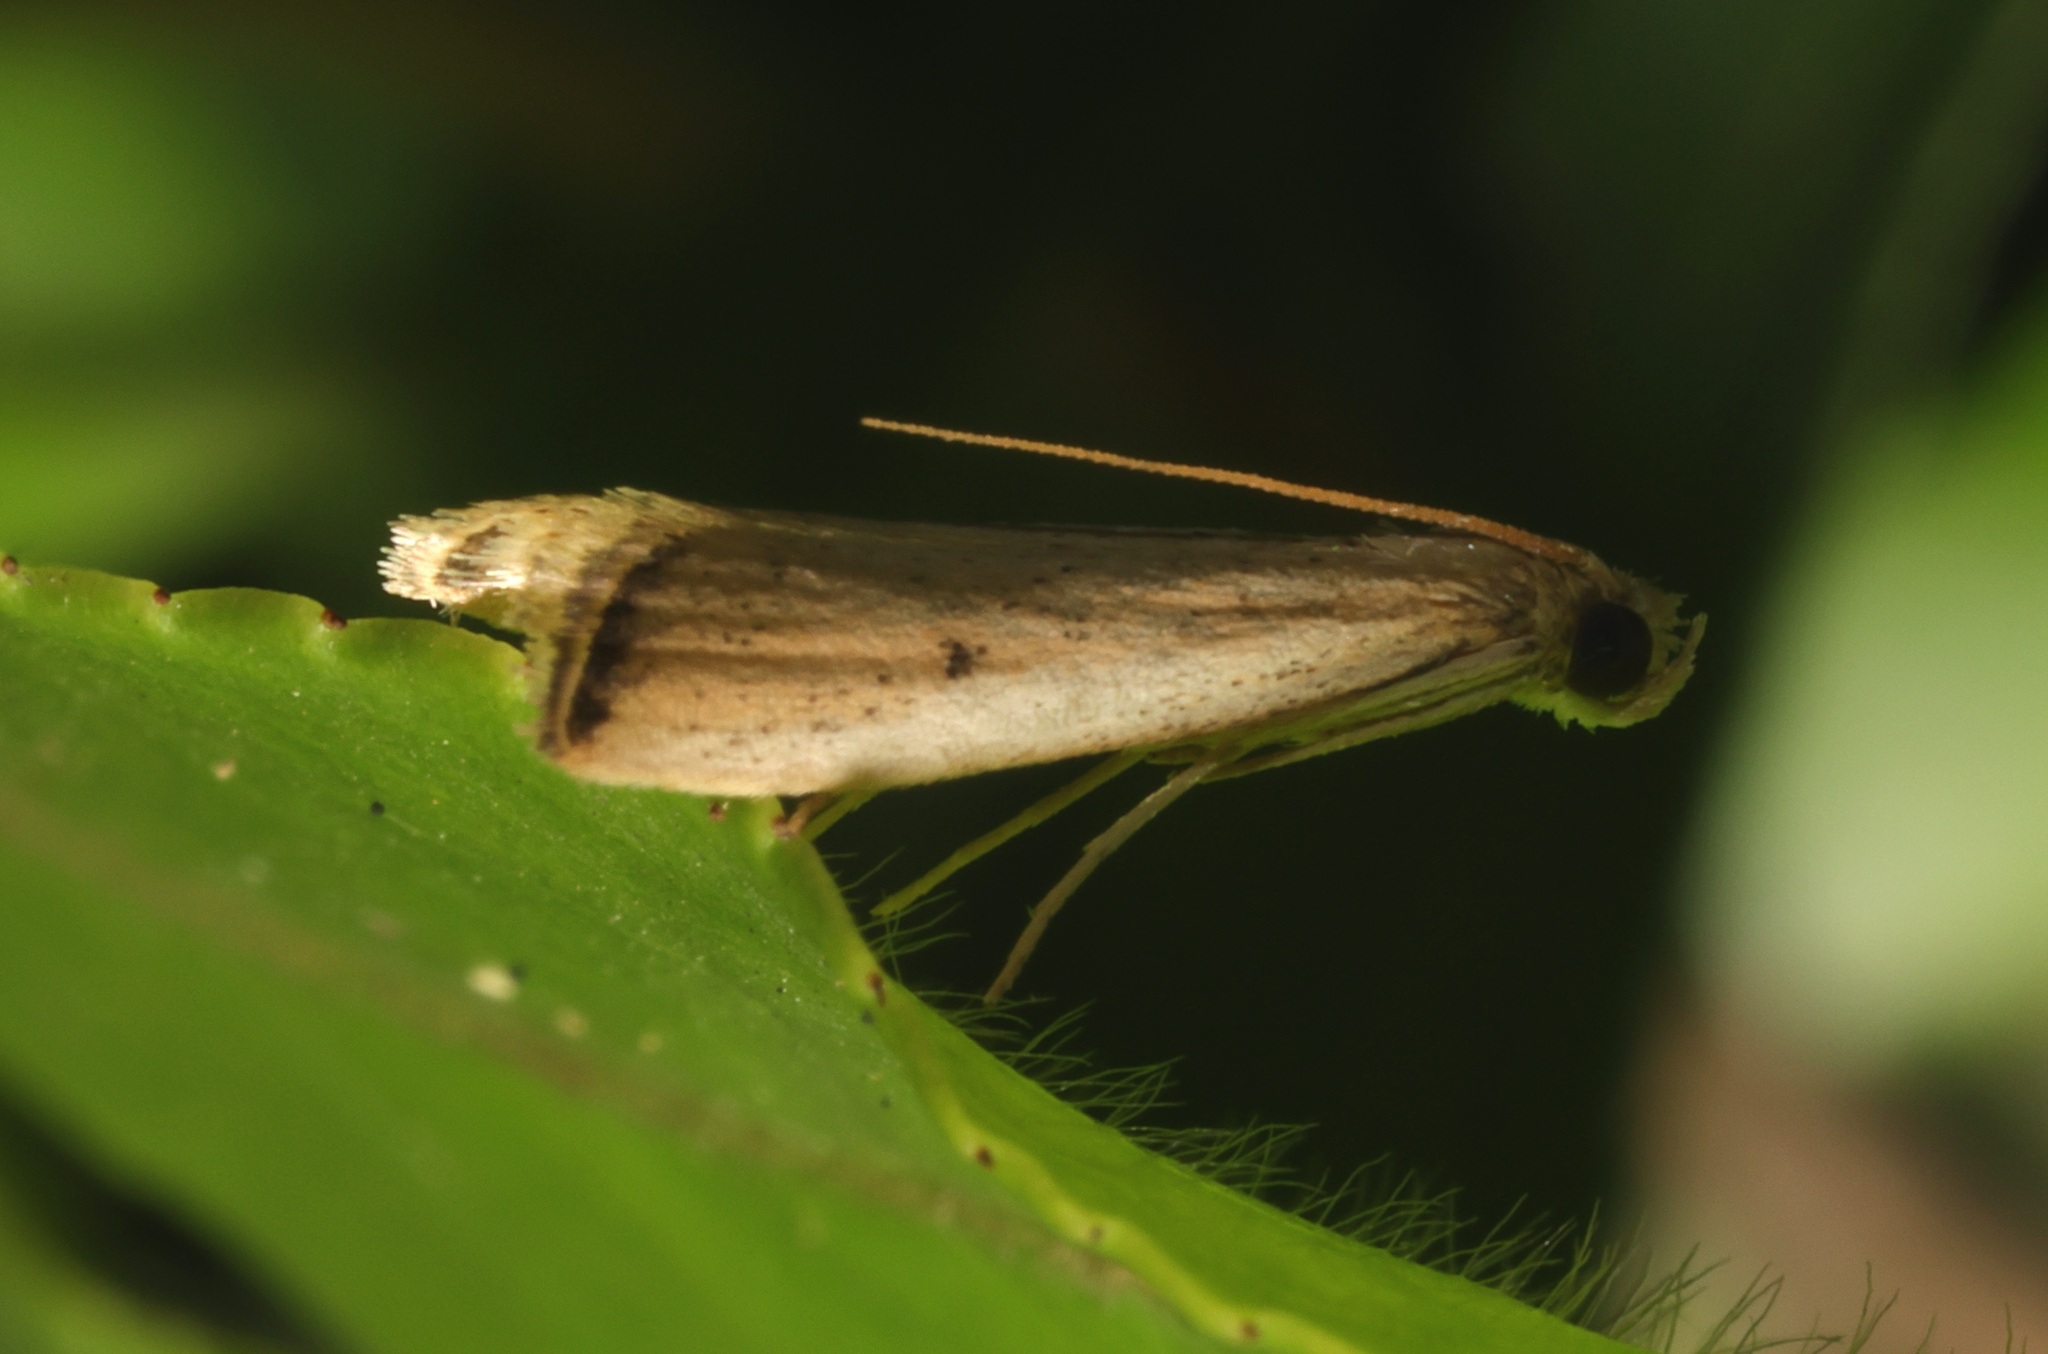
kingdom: Animalia
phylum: Arthropoda
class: Insecta
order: Lepidoptera
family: Pyralidae
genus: Quasipuer
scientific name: Quasipuer colon
